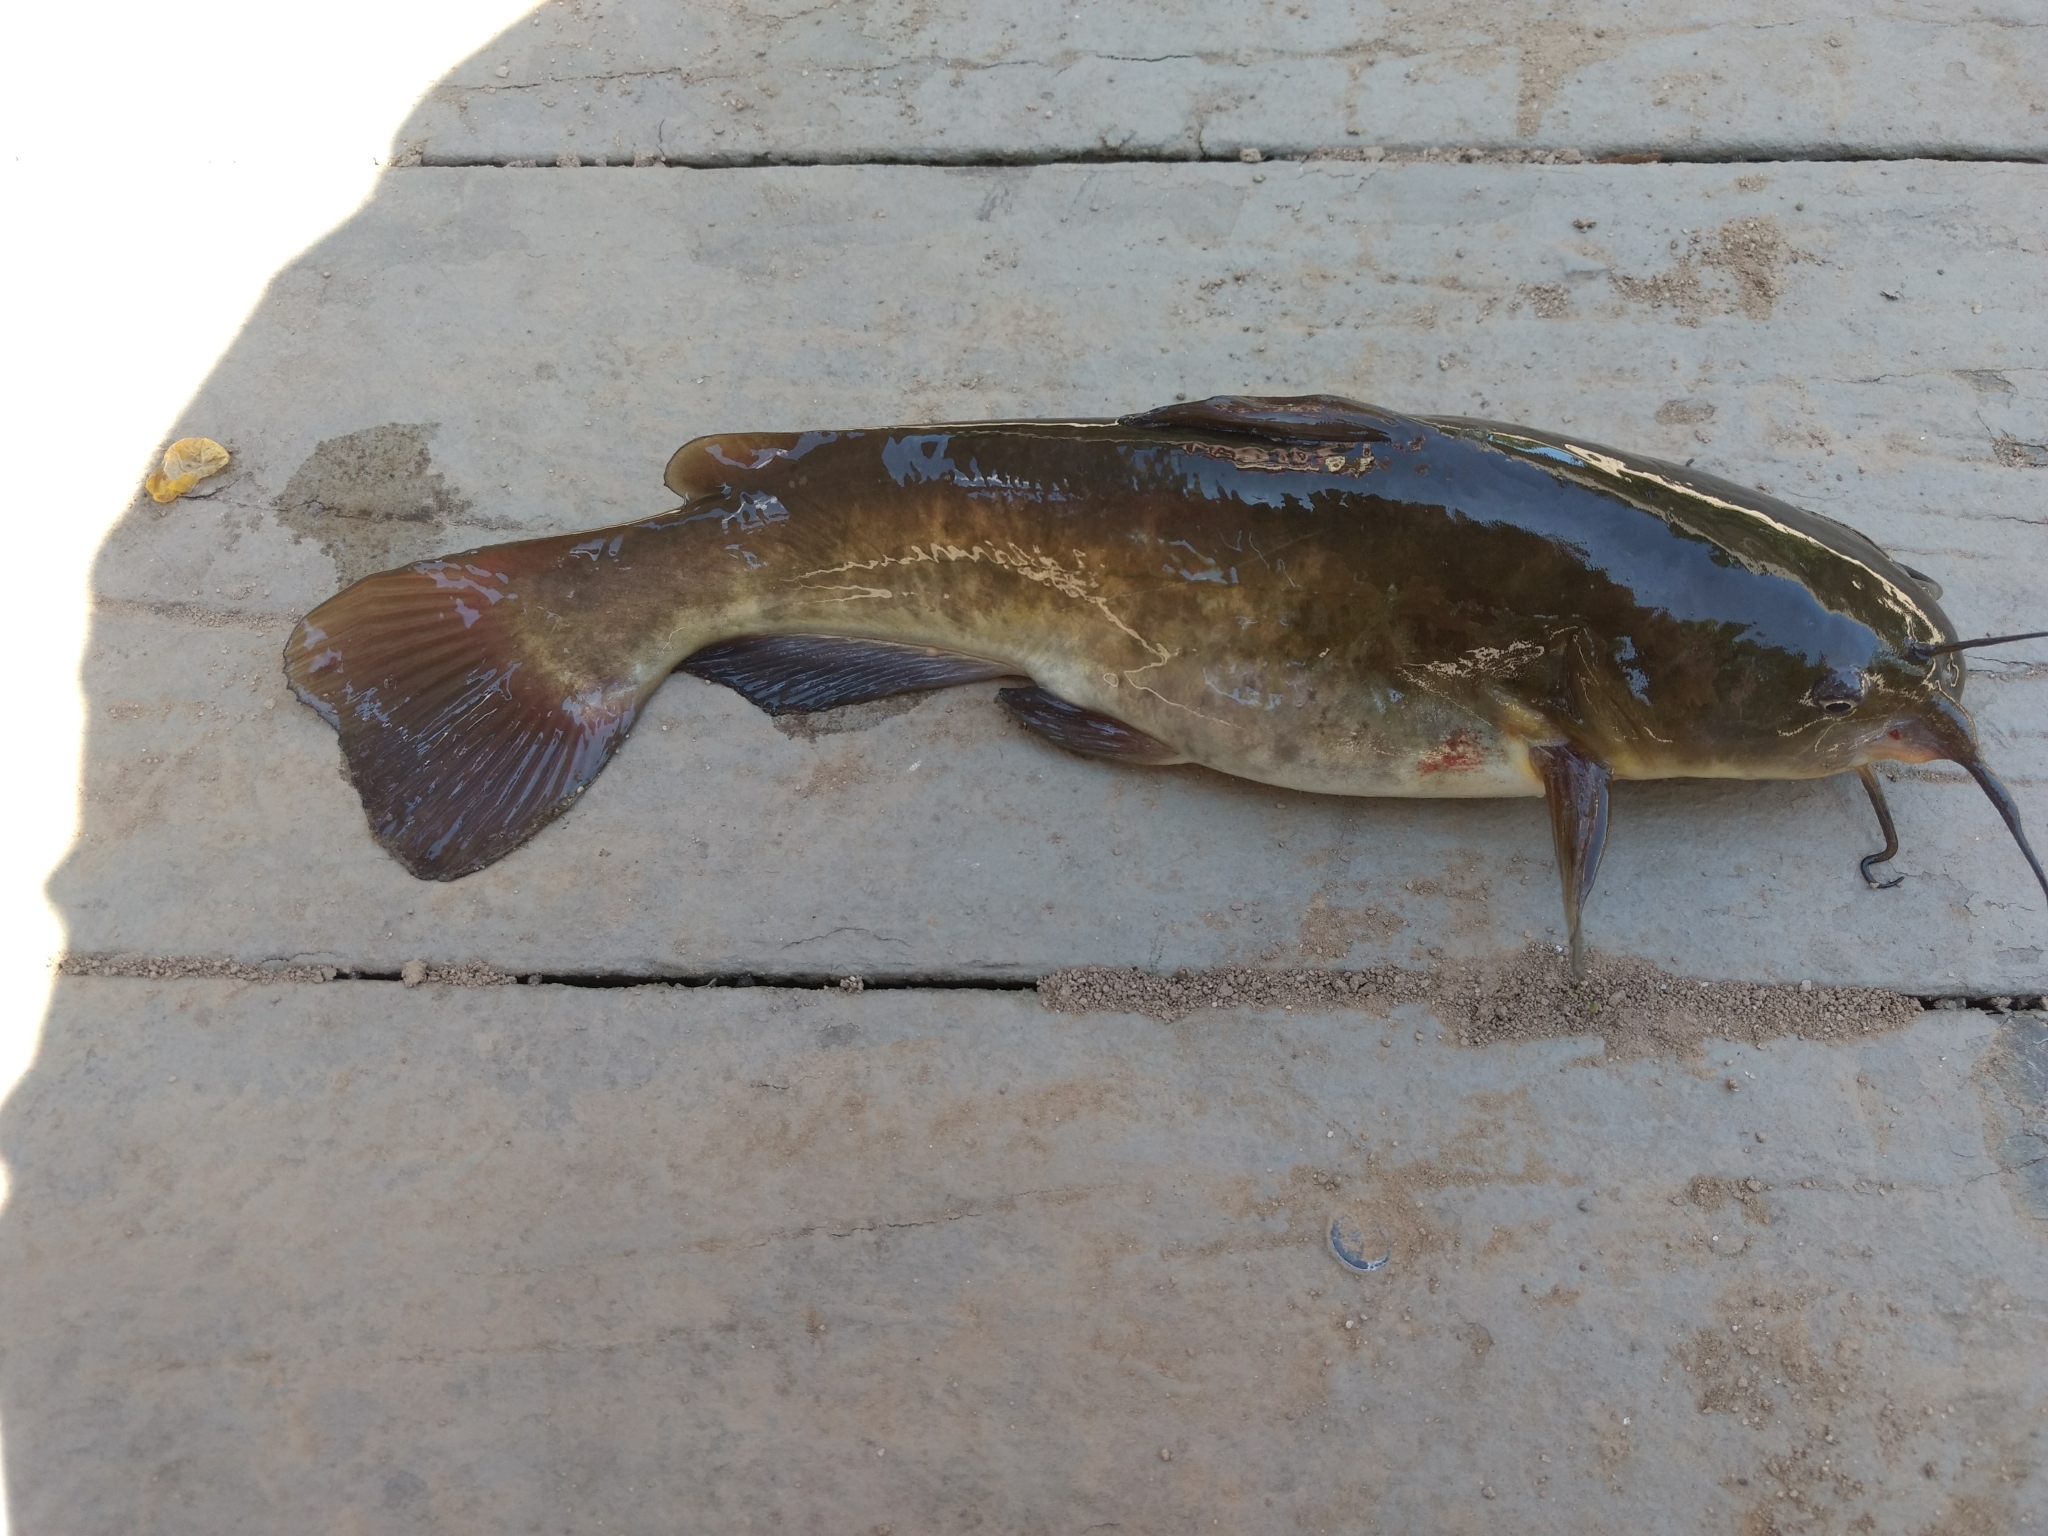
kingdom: Animalia
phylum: Chordata
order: Siluriformes
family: Ictaluridae
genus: Ameiurus
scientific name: Ameiurus nebulosus
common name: Brown bullhead
